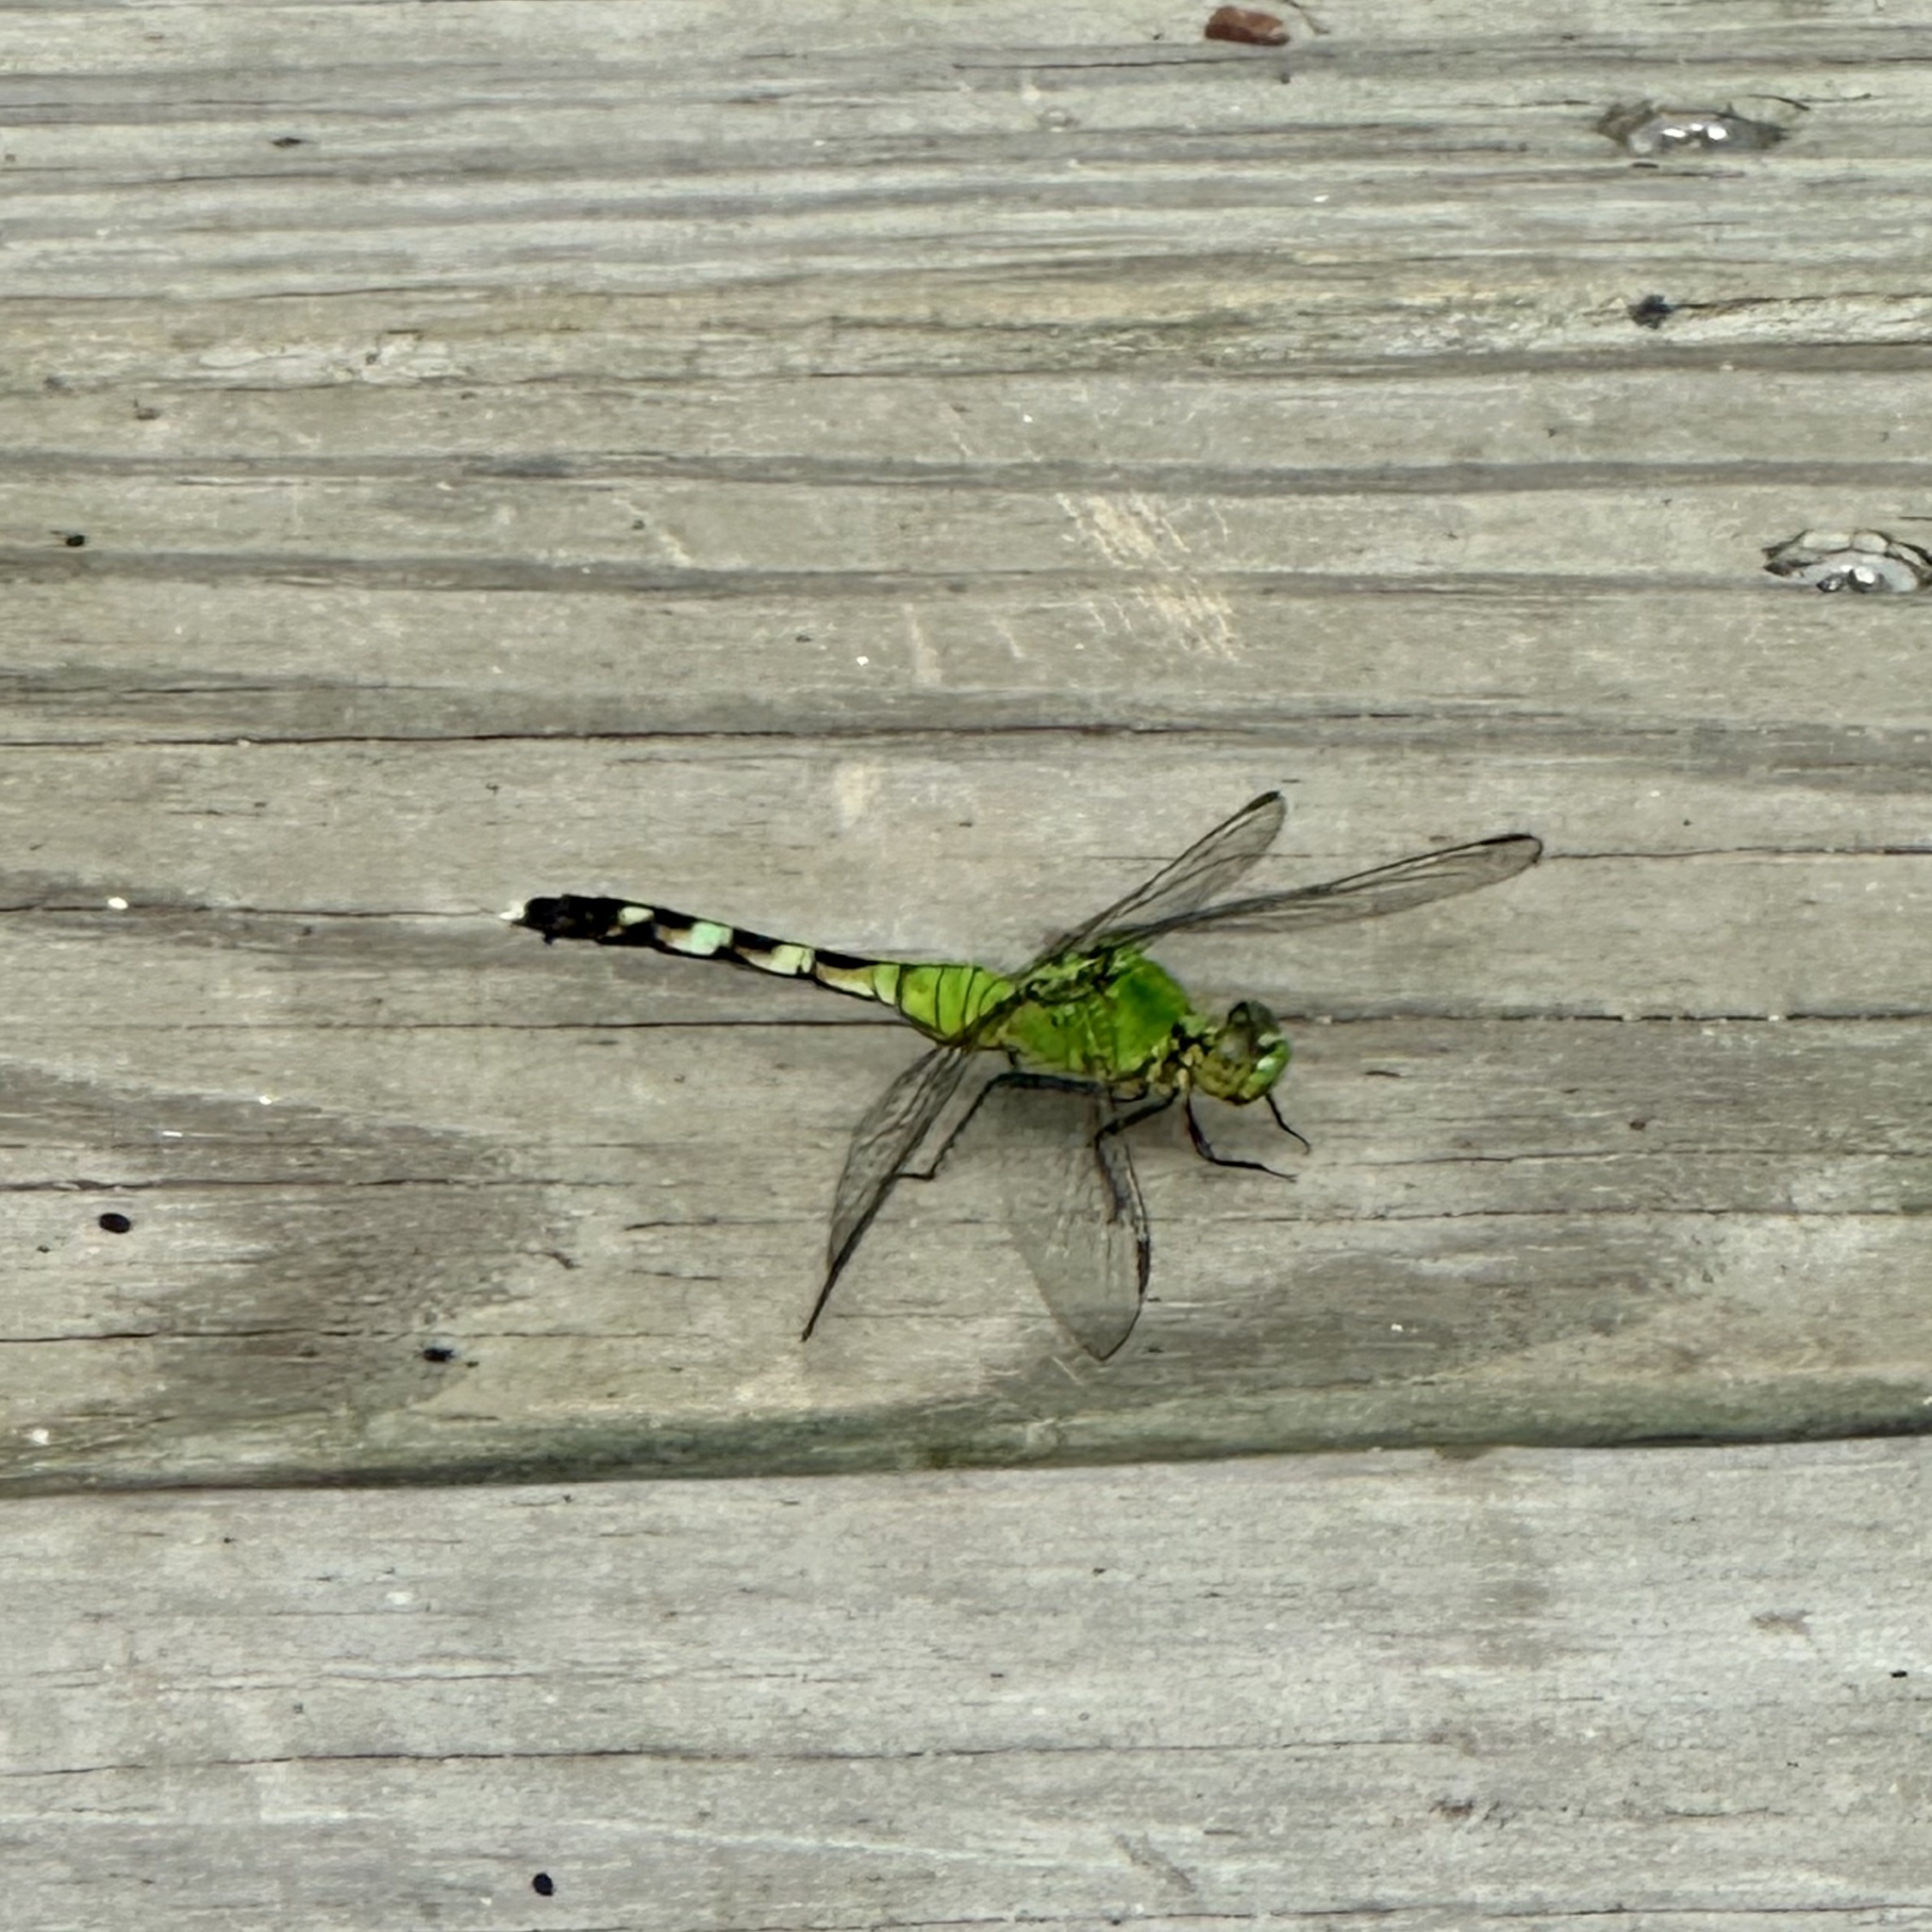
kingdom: Animalia
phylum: Arthropoda
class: Insecta
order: Odonata
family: Libellulidae
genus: Erythemis
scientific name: Erythemis simplicicollis
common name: Eastern pondhawk
